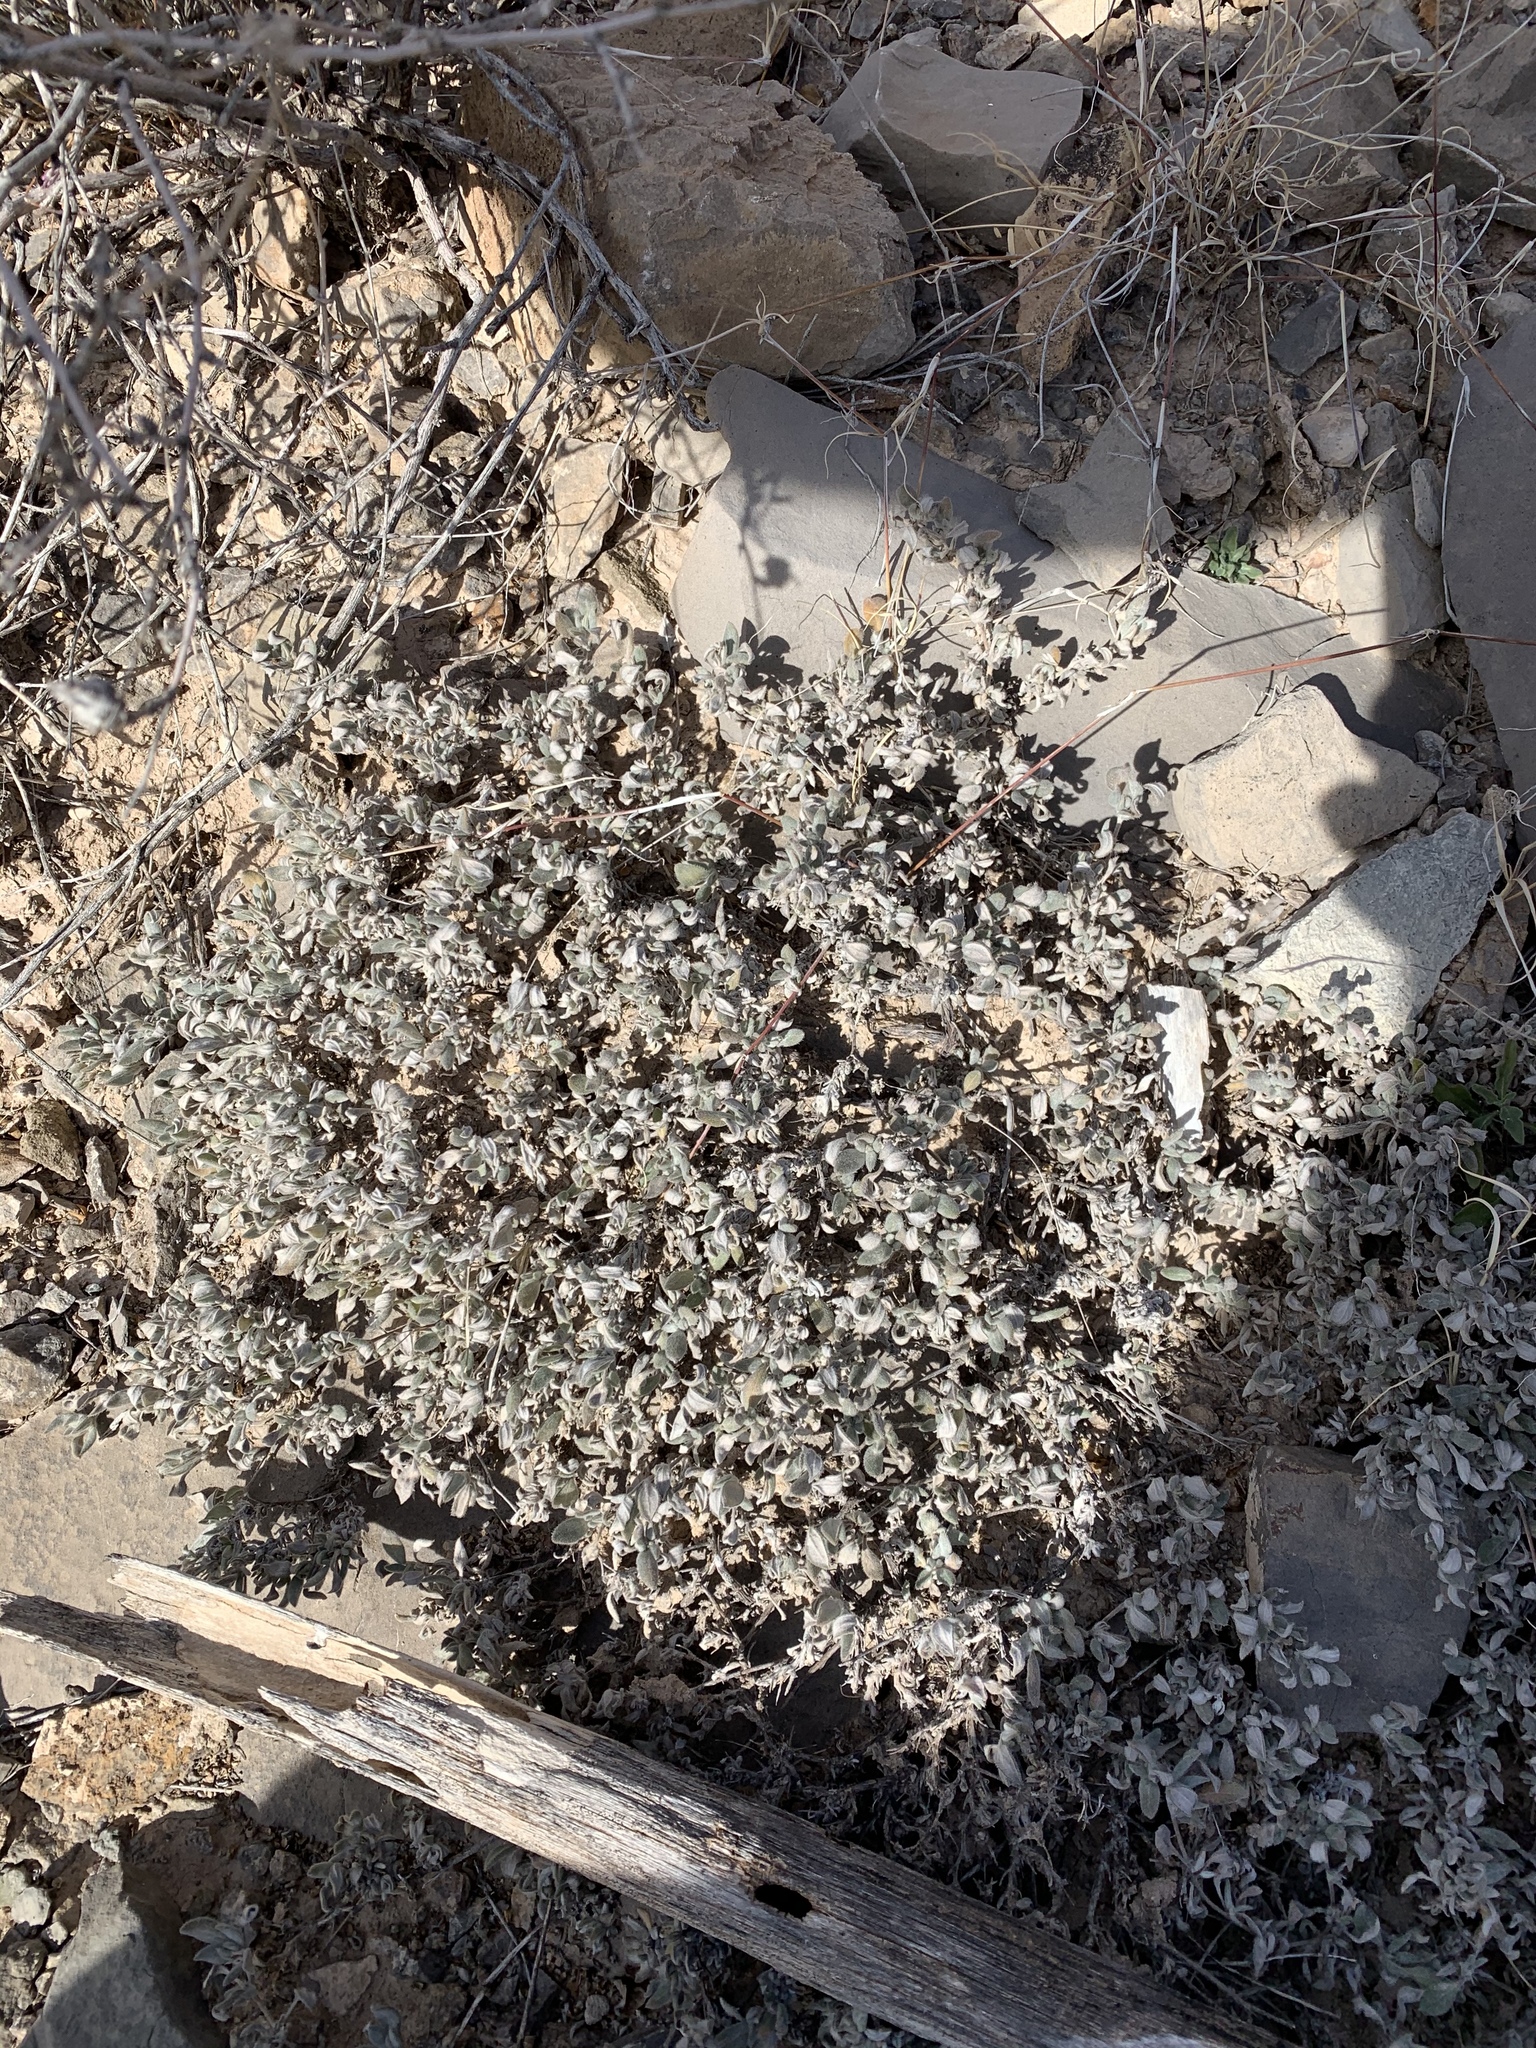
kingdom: Plantae
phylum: Tracheophyta
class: Magnoliopsida
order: Boraginales
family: Ehretiaceae
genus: Tiquilia
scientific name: Tiquilia canescens
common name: Hairy tiquilia
